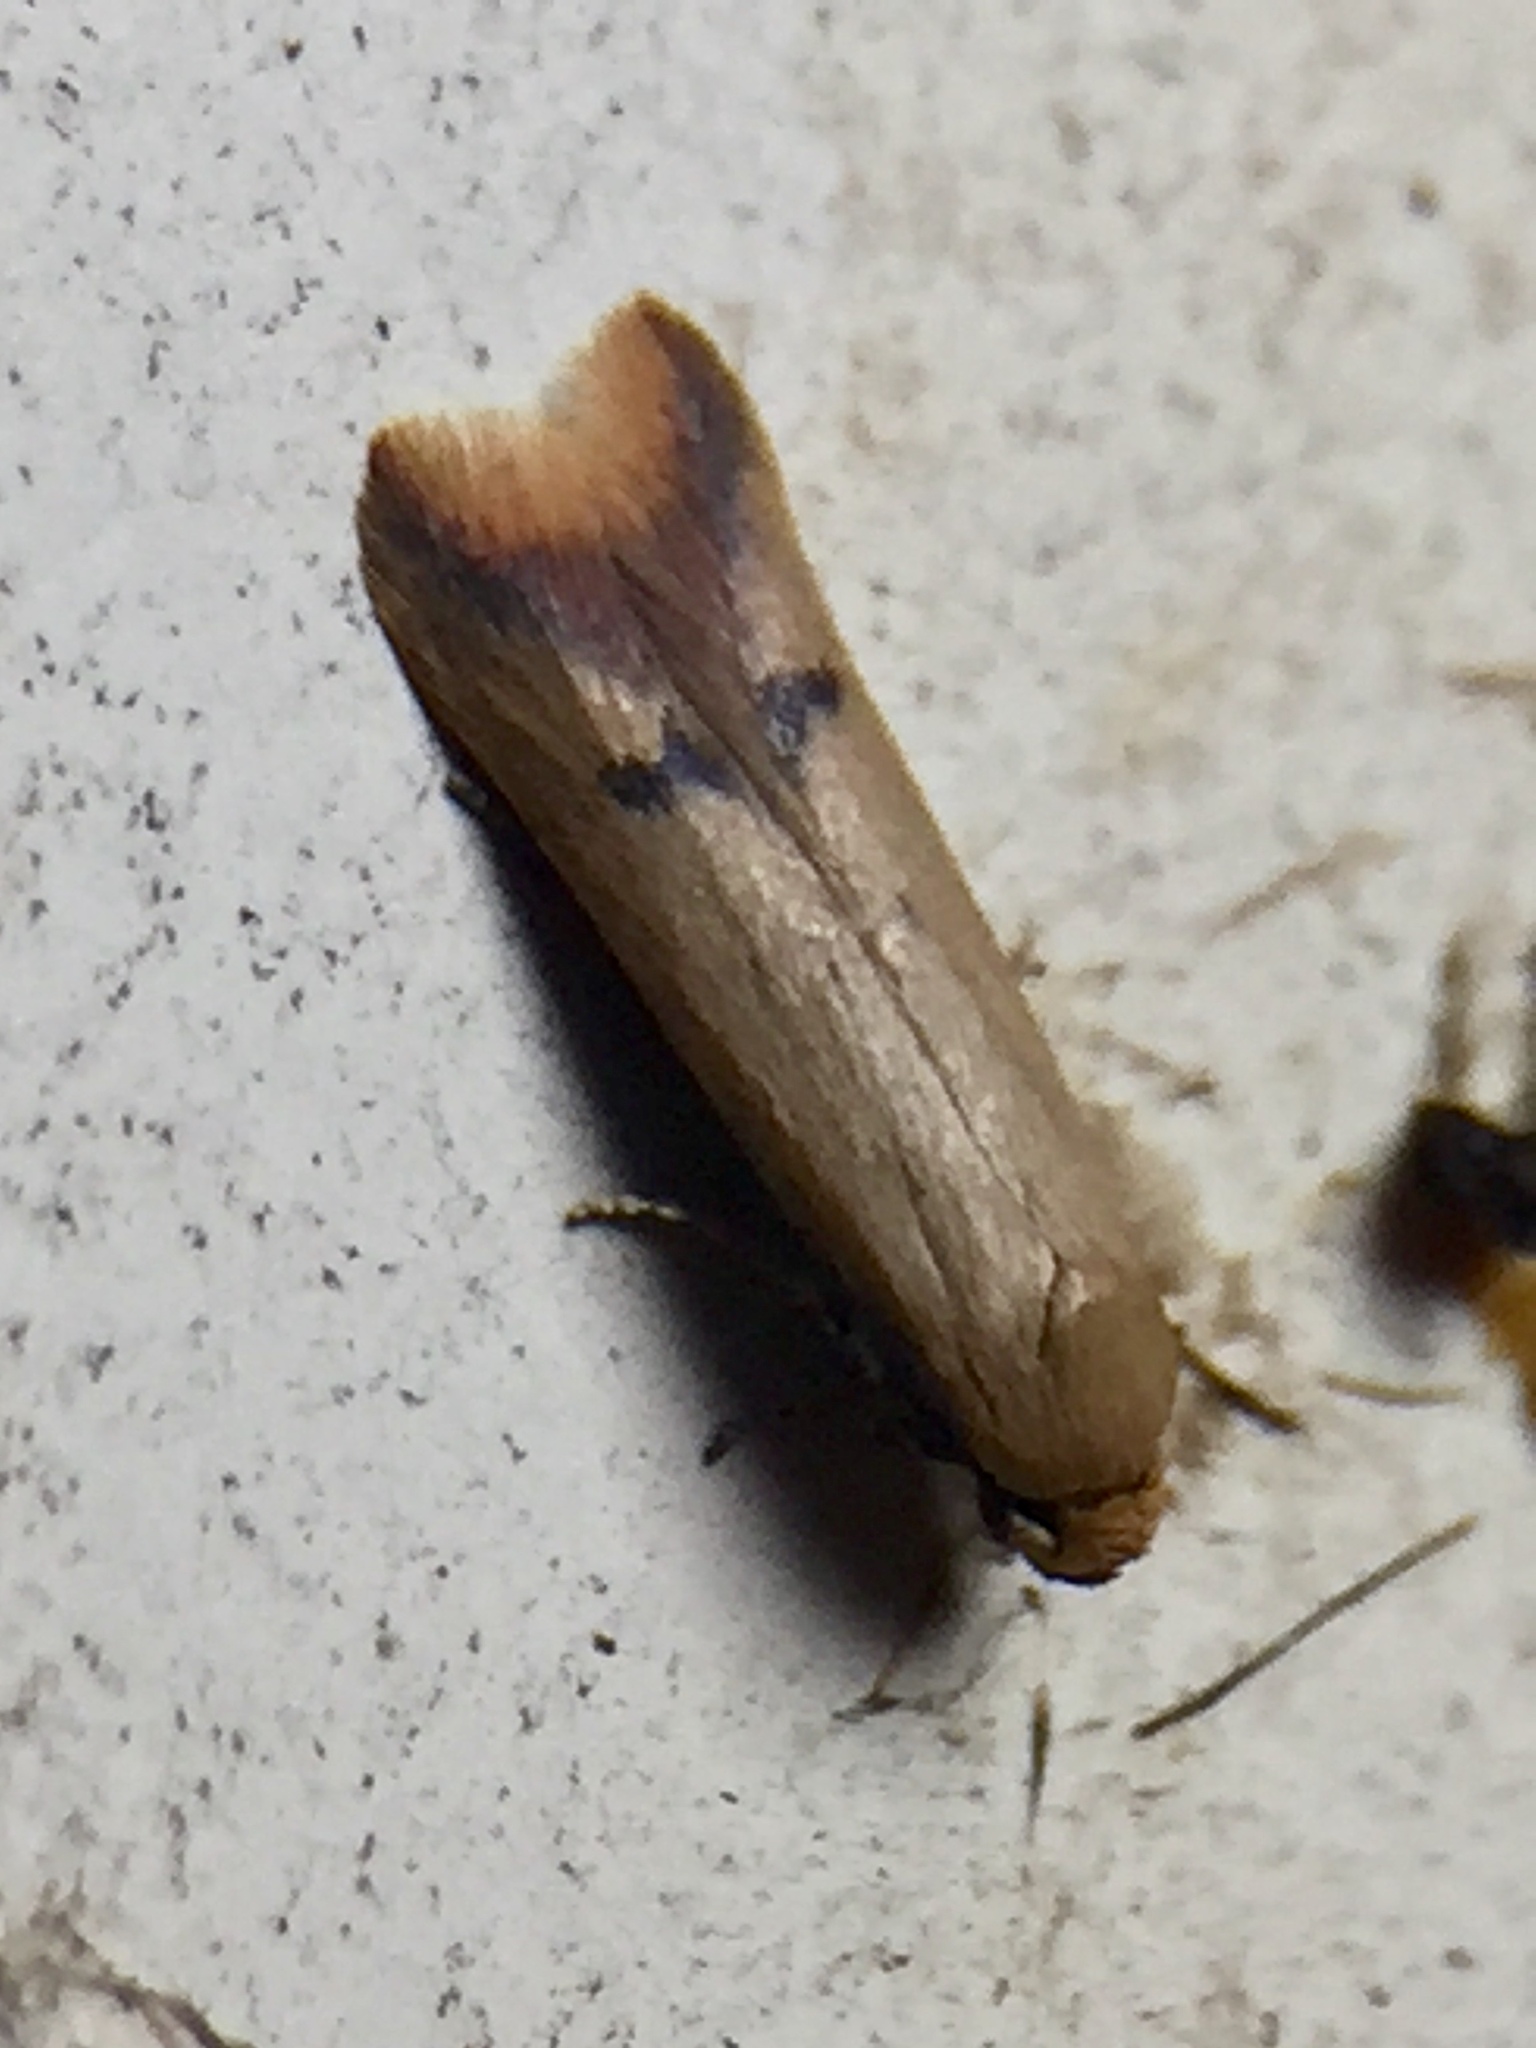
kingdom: Animalia
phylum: Arthropoda
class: Insecta
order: Lepidoptera
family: Oecophoridae
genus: Tachystola
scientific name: Tachystola hemisema
